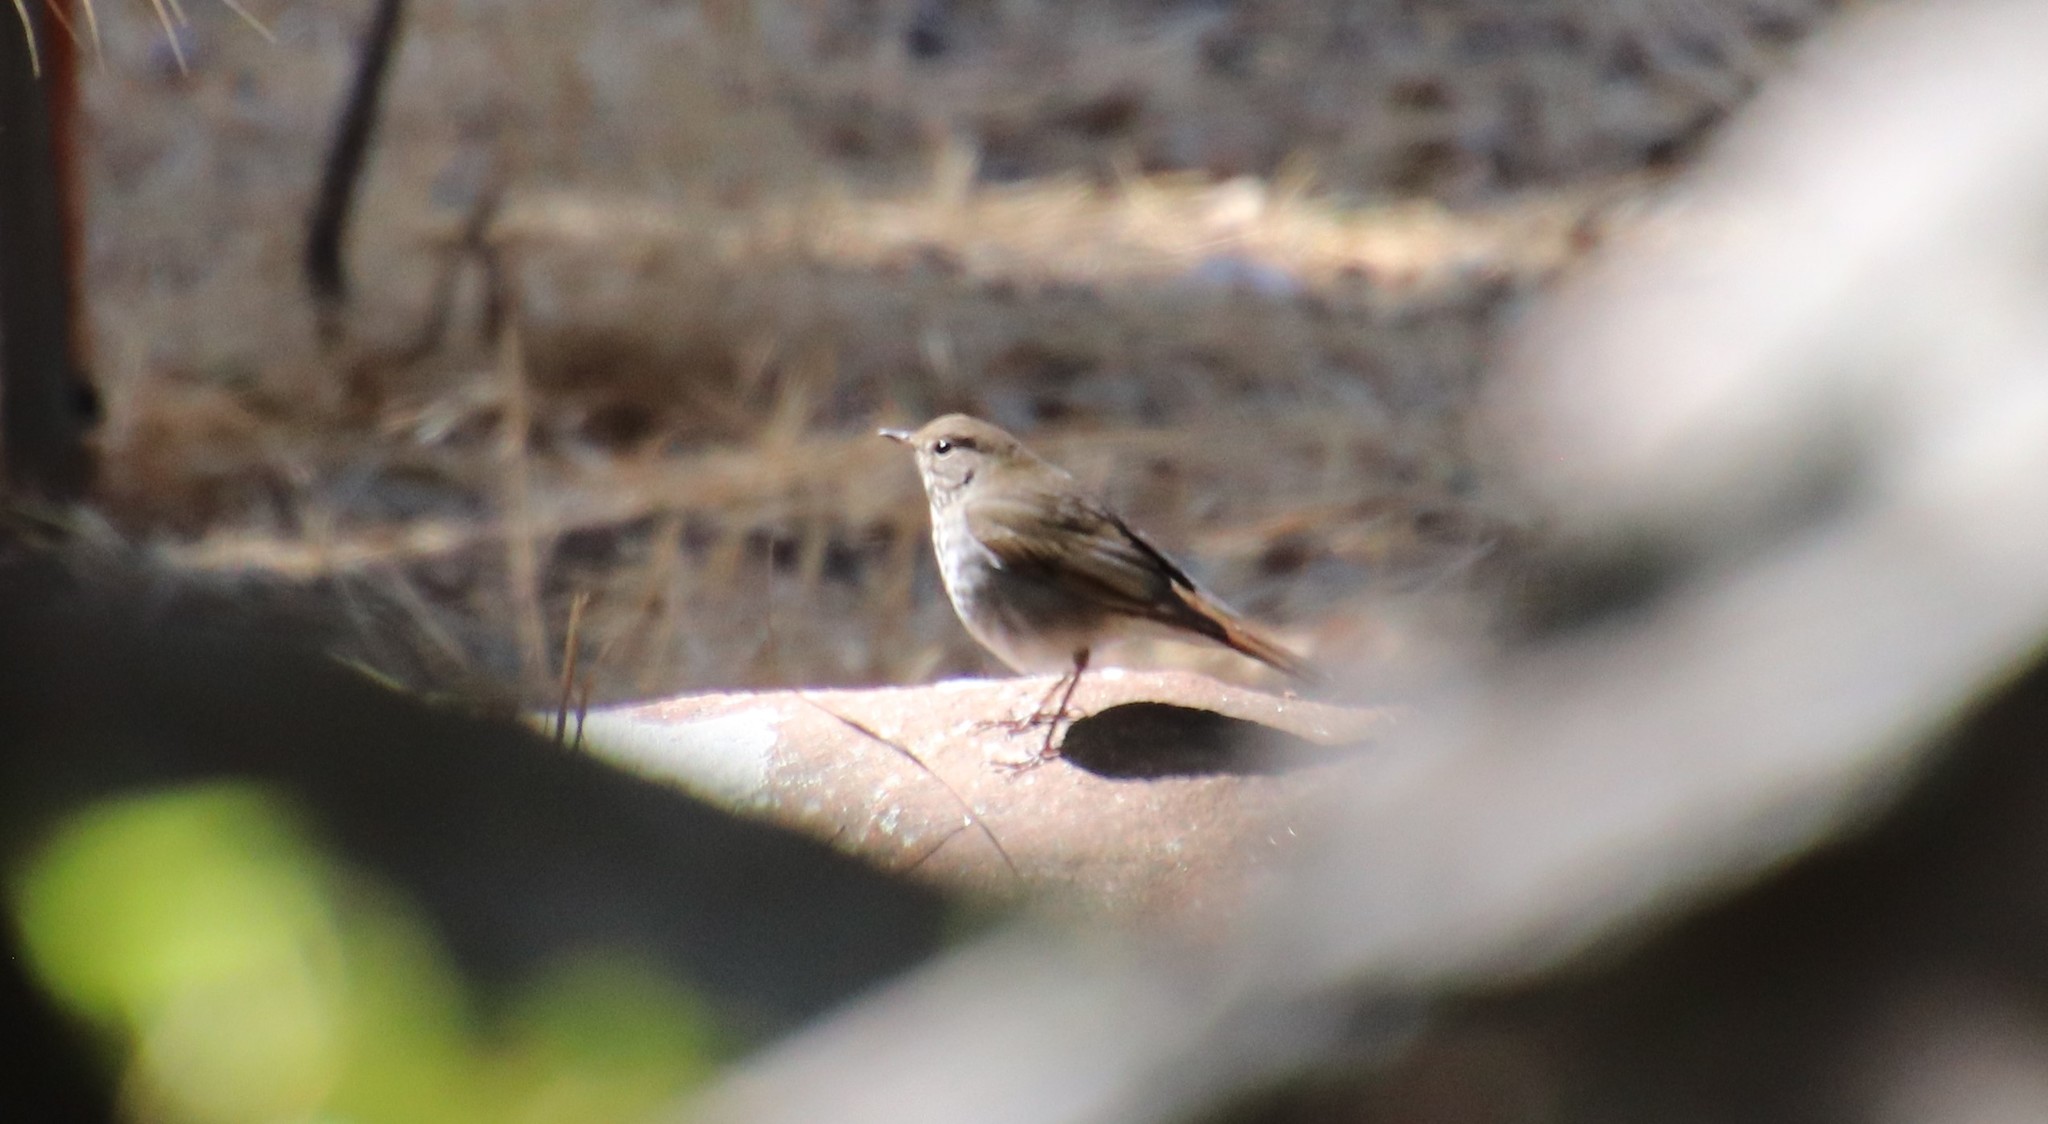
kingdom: Animalia
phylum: Chordata
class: Aves
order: Passeriformes
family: Turdidae
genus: Catharus
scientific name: Catharus guttatus
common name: Hermit thrush
